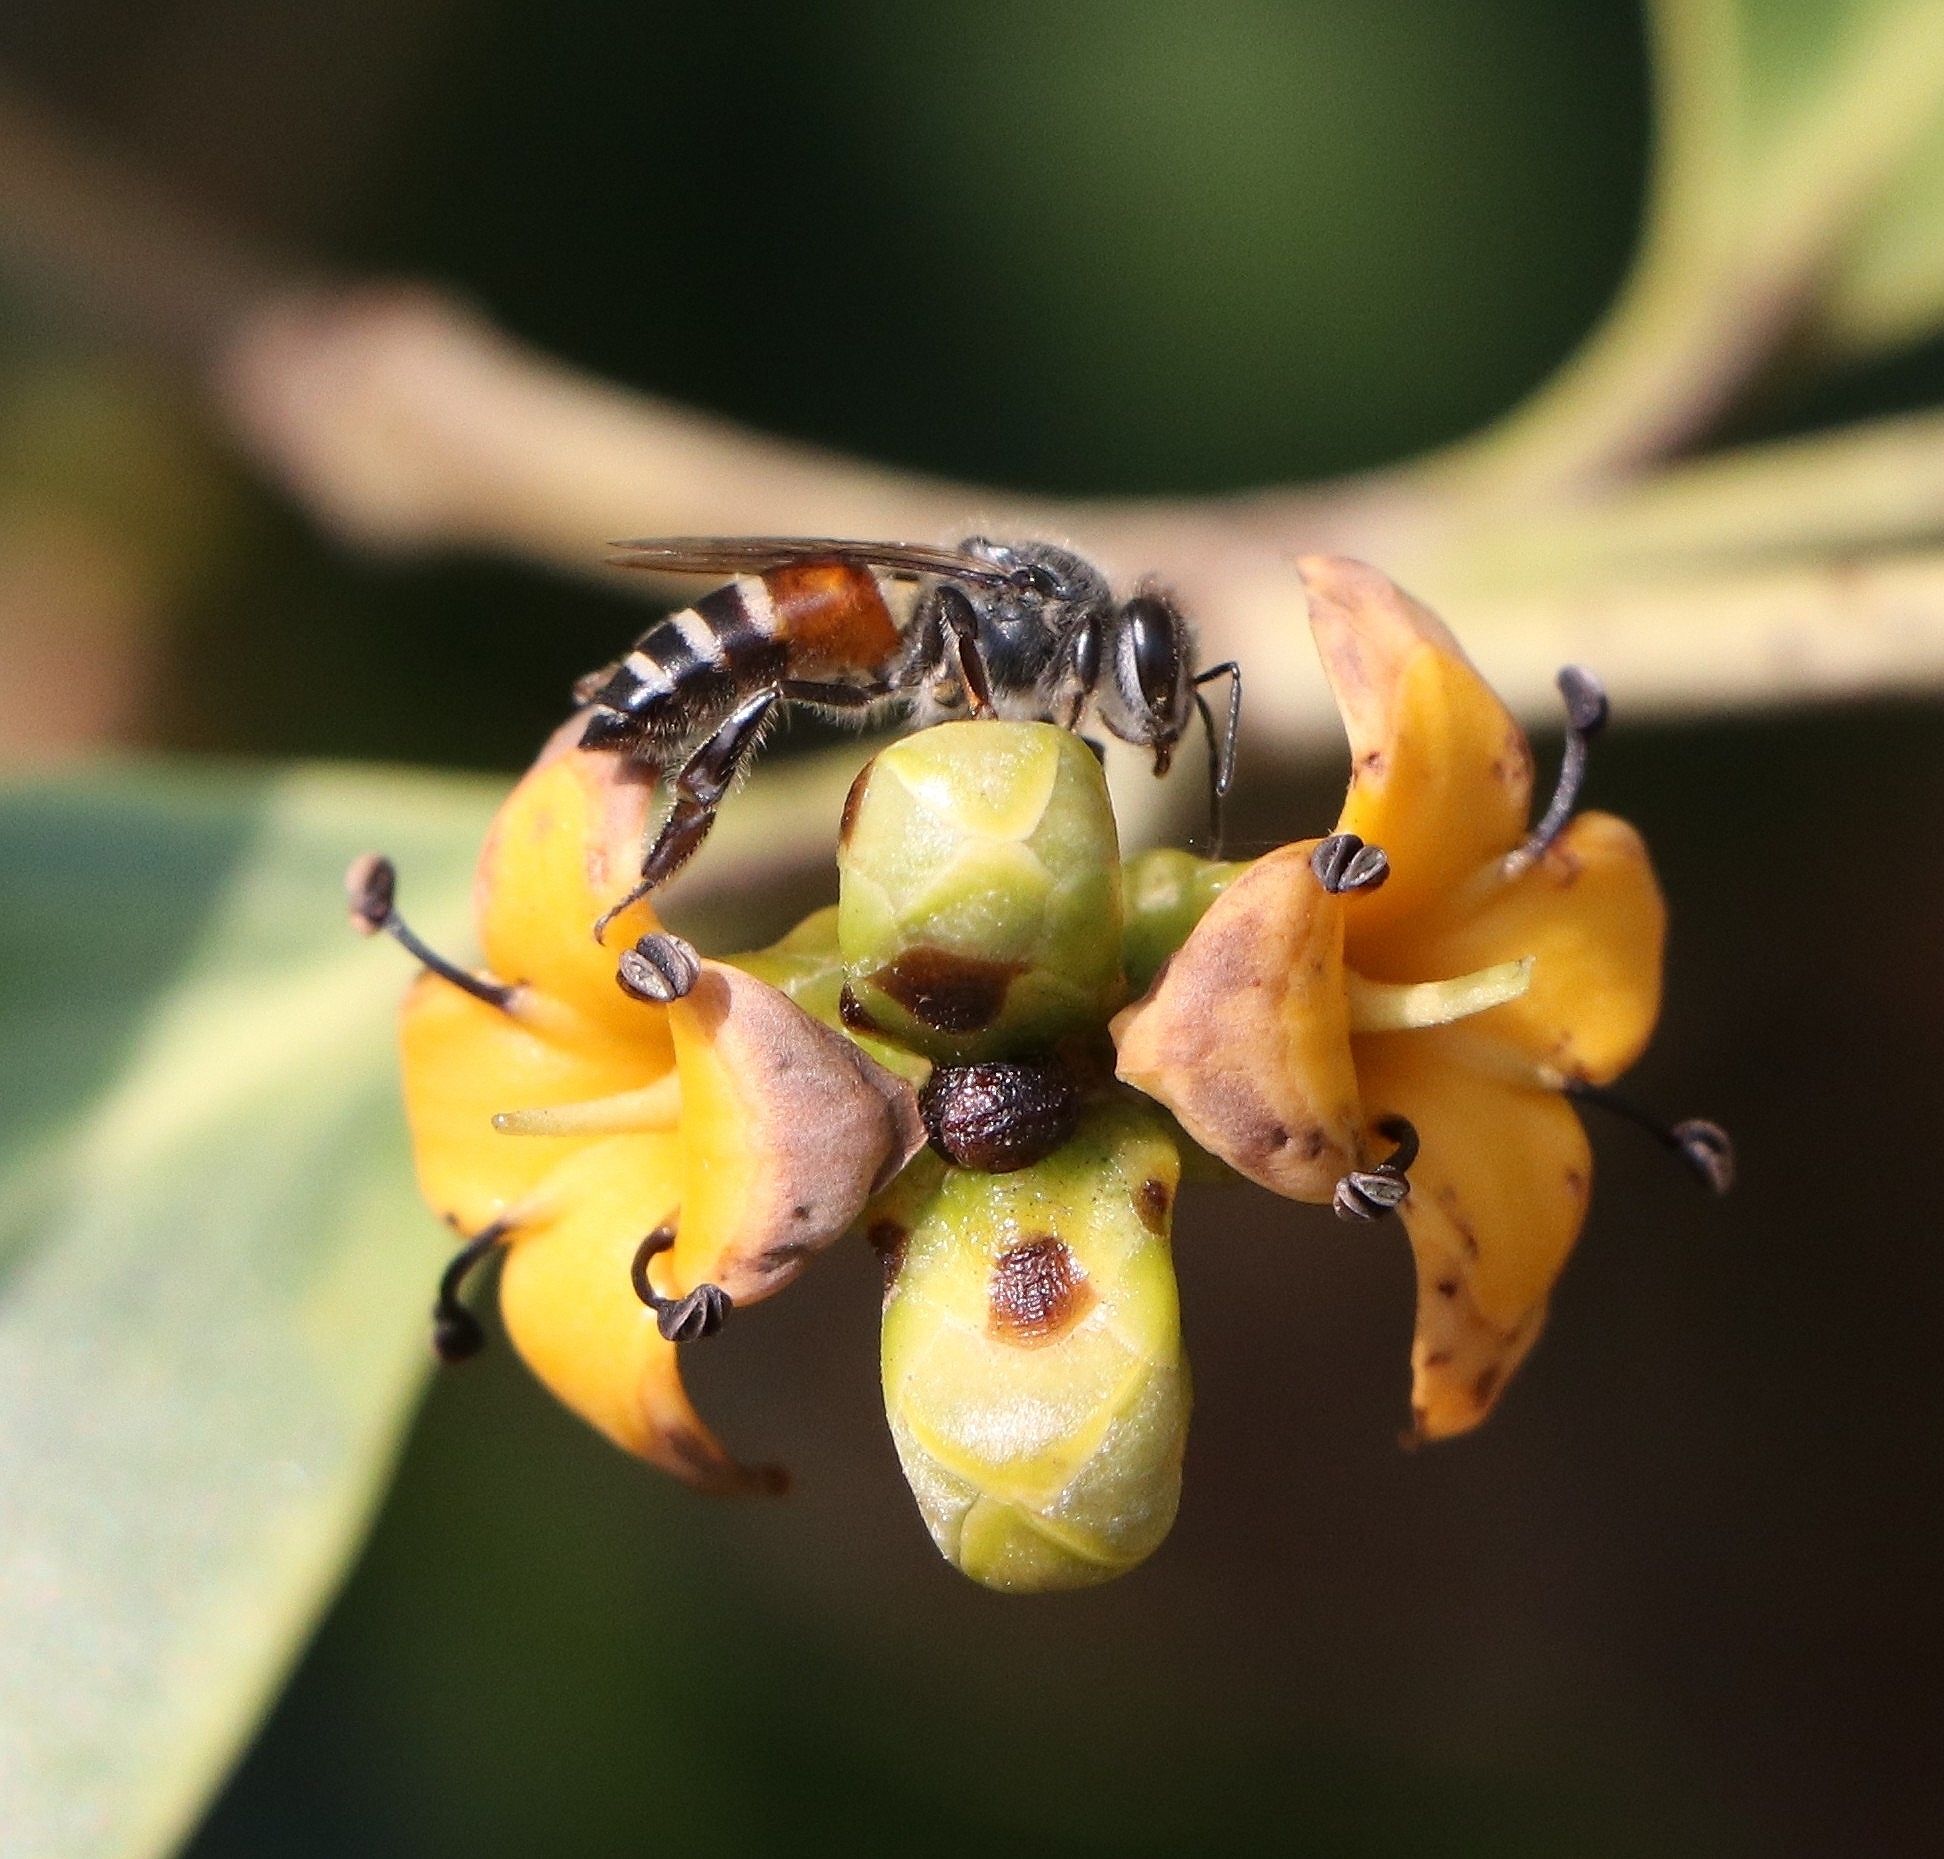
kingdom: Animalia
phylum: Arthropoda
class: Insecta
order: Hymenoptera
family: Apidae
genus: Apis
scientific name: Apis florea
